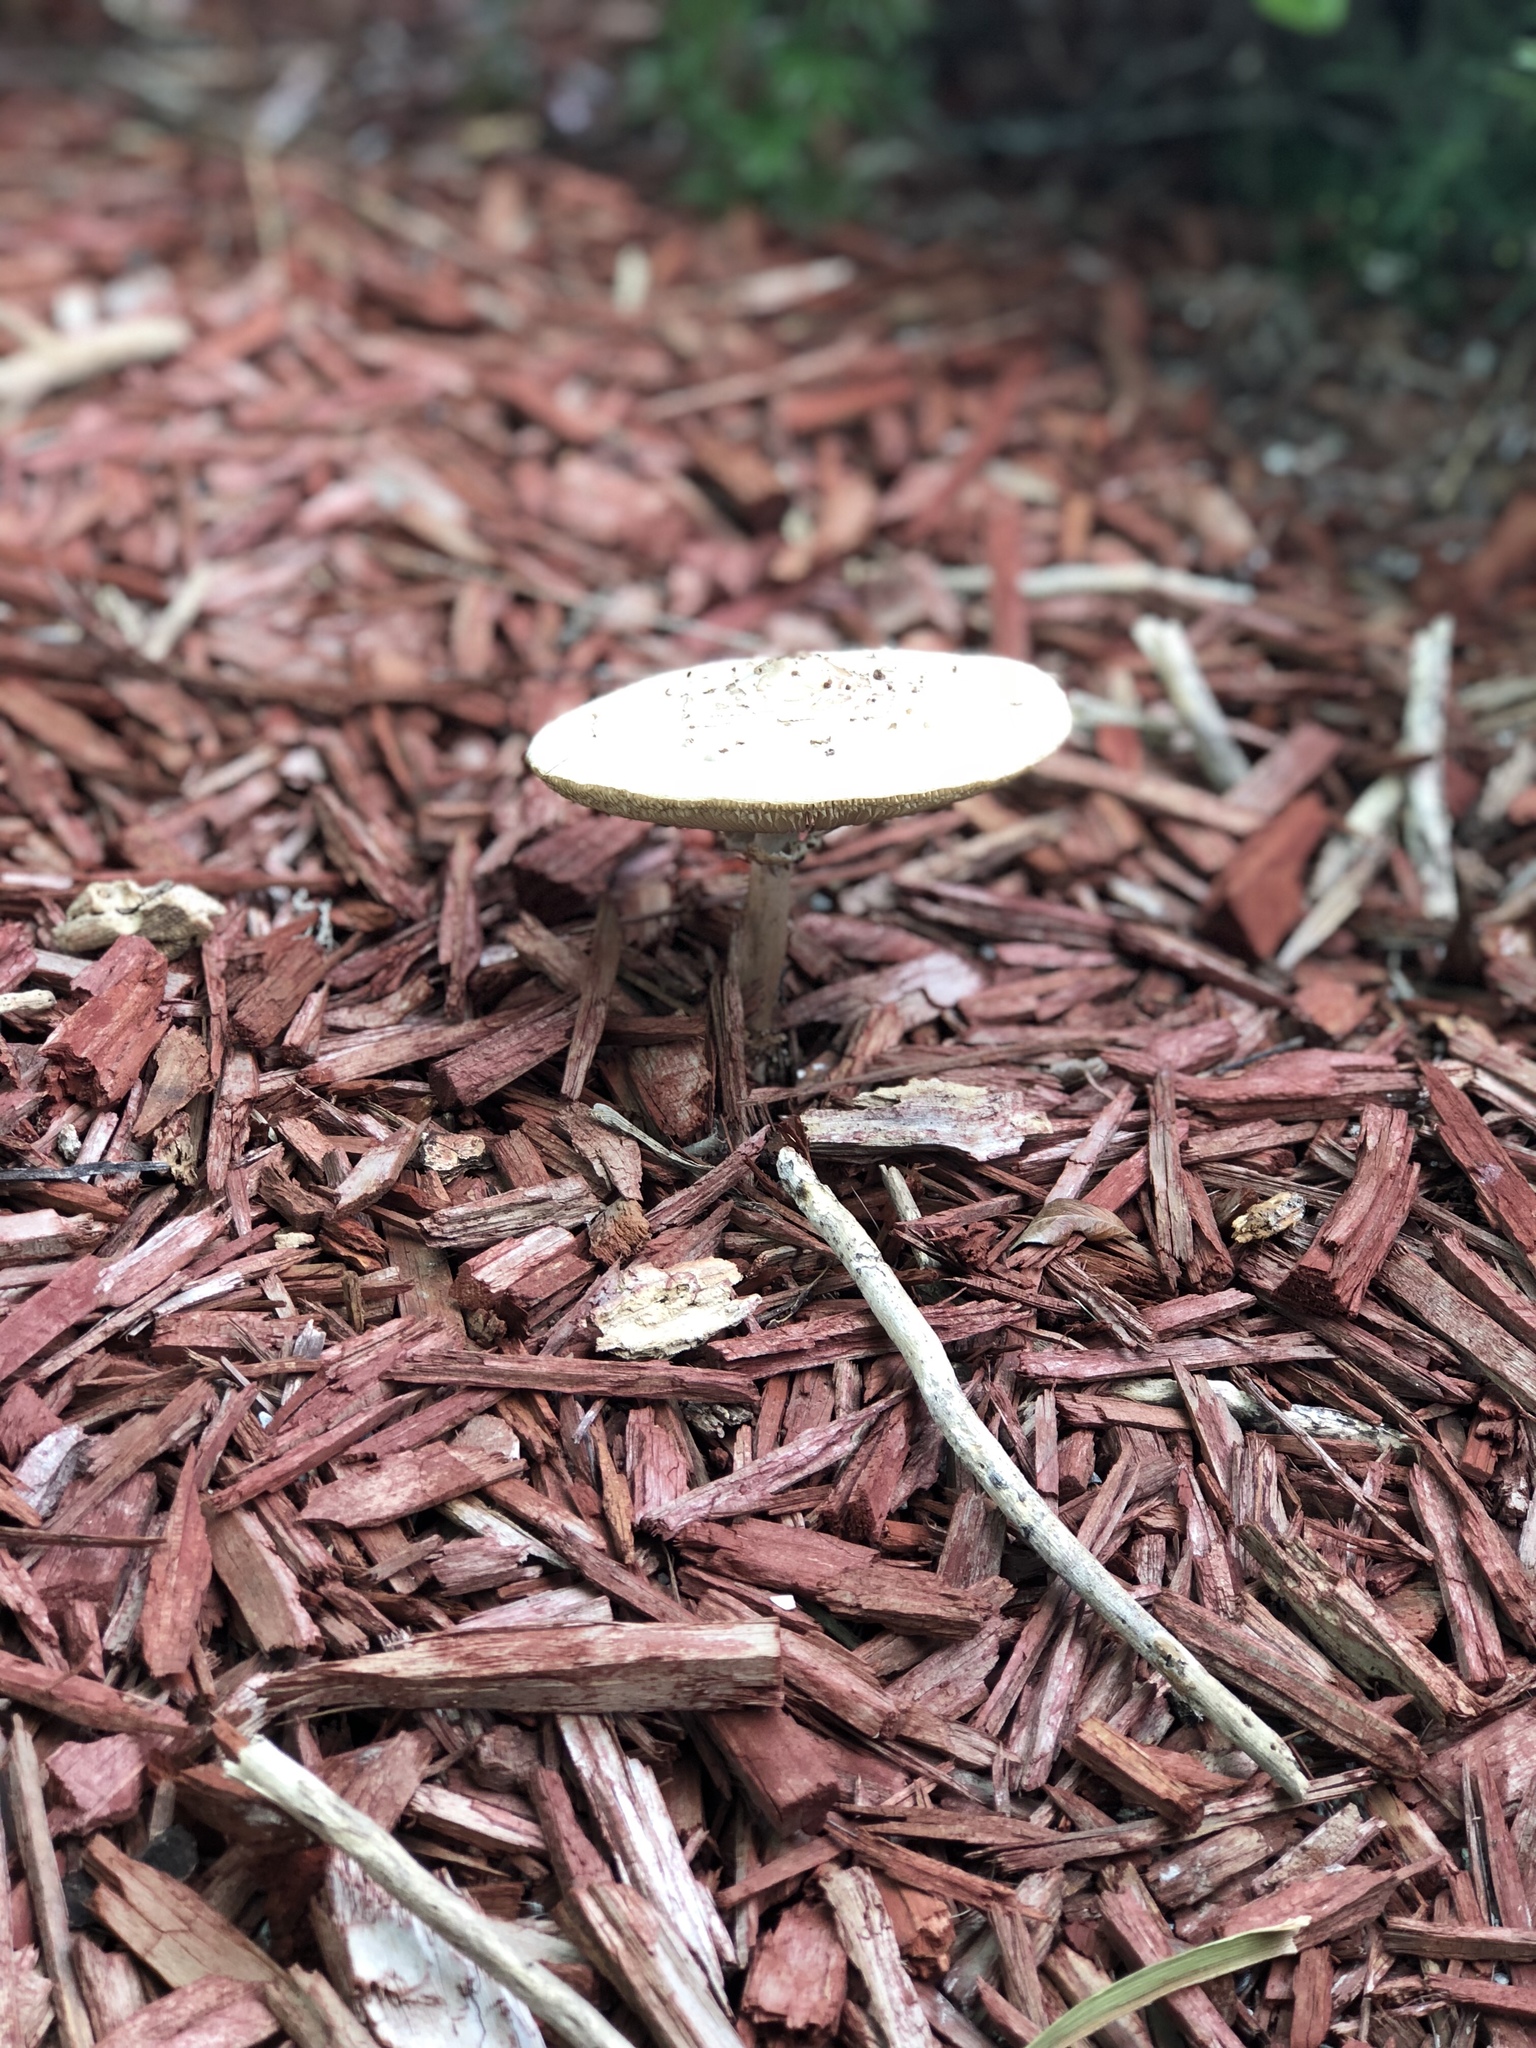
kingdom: Fungi
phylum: Basidiomycota
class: Agaricomycetes
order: Agaricales
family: Agaricaceae
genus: Chlorophyllum
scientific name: Chlorophyllum molybdites
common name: False parasol
